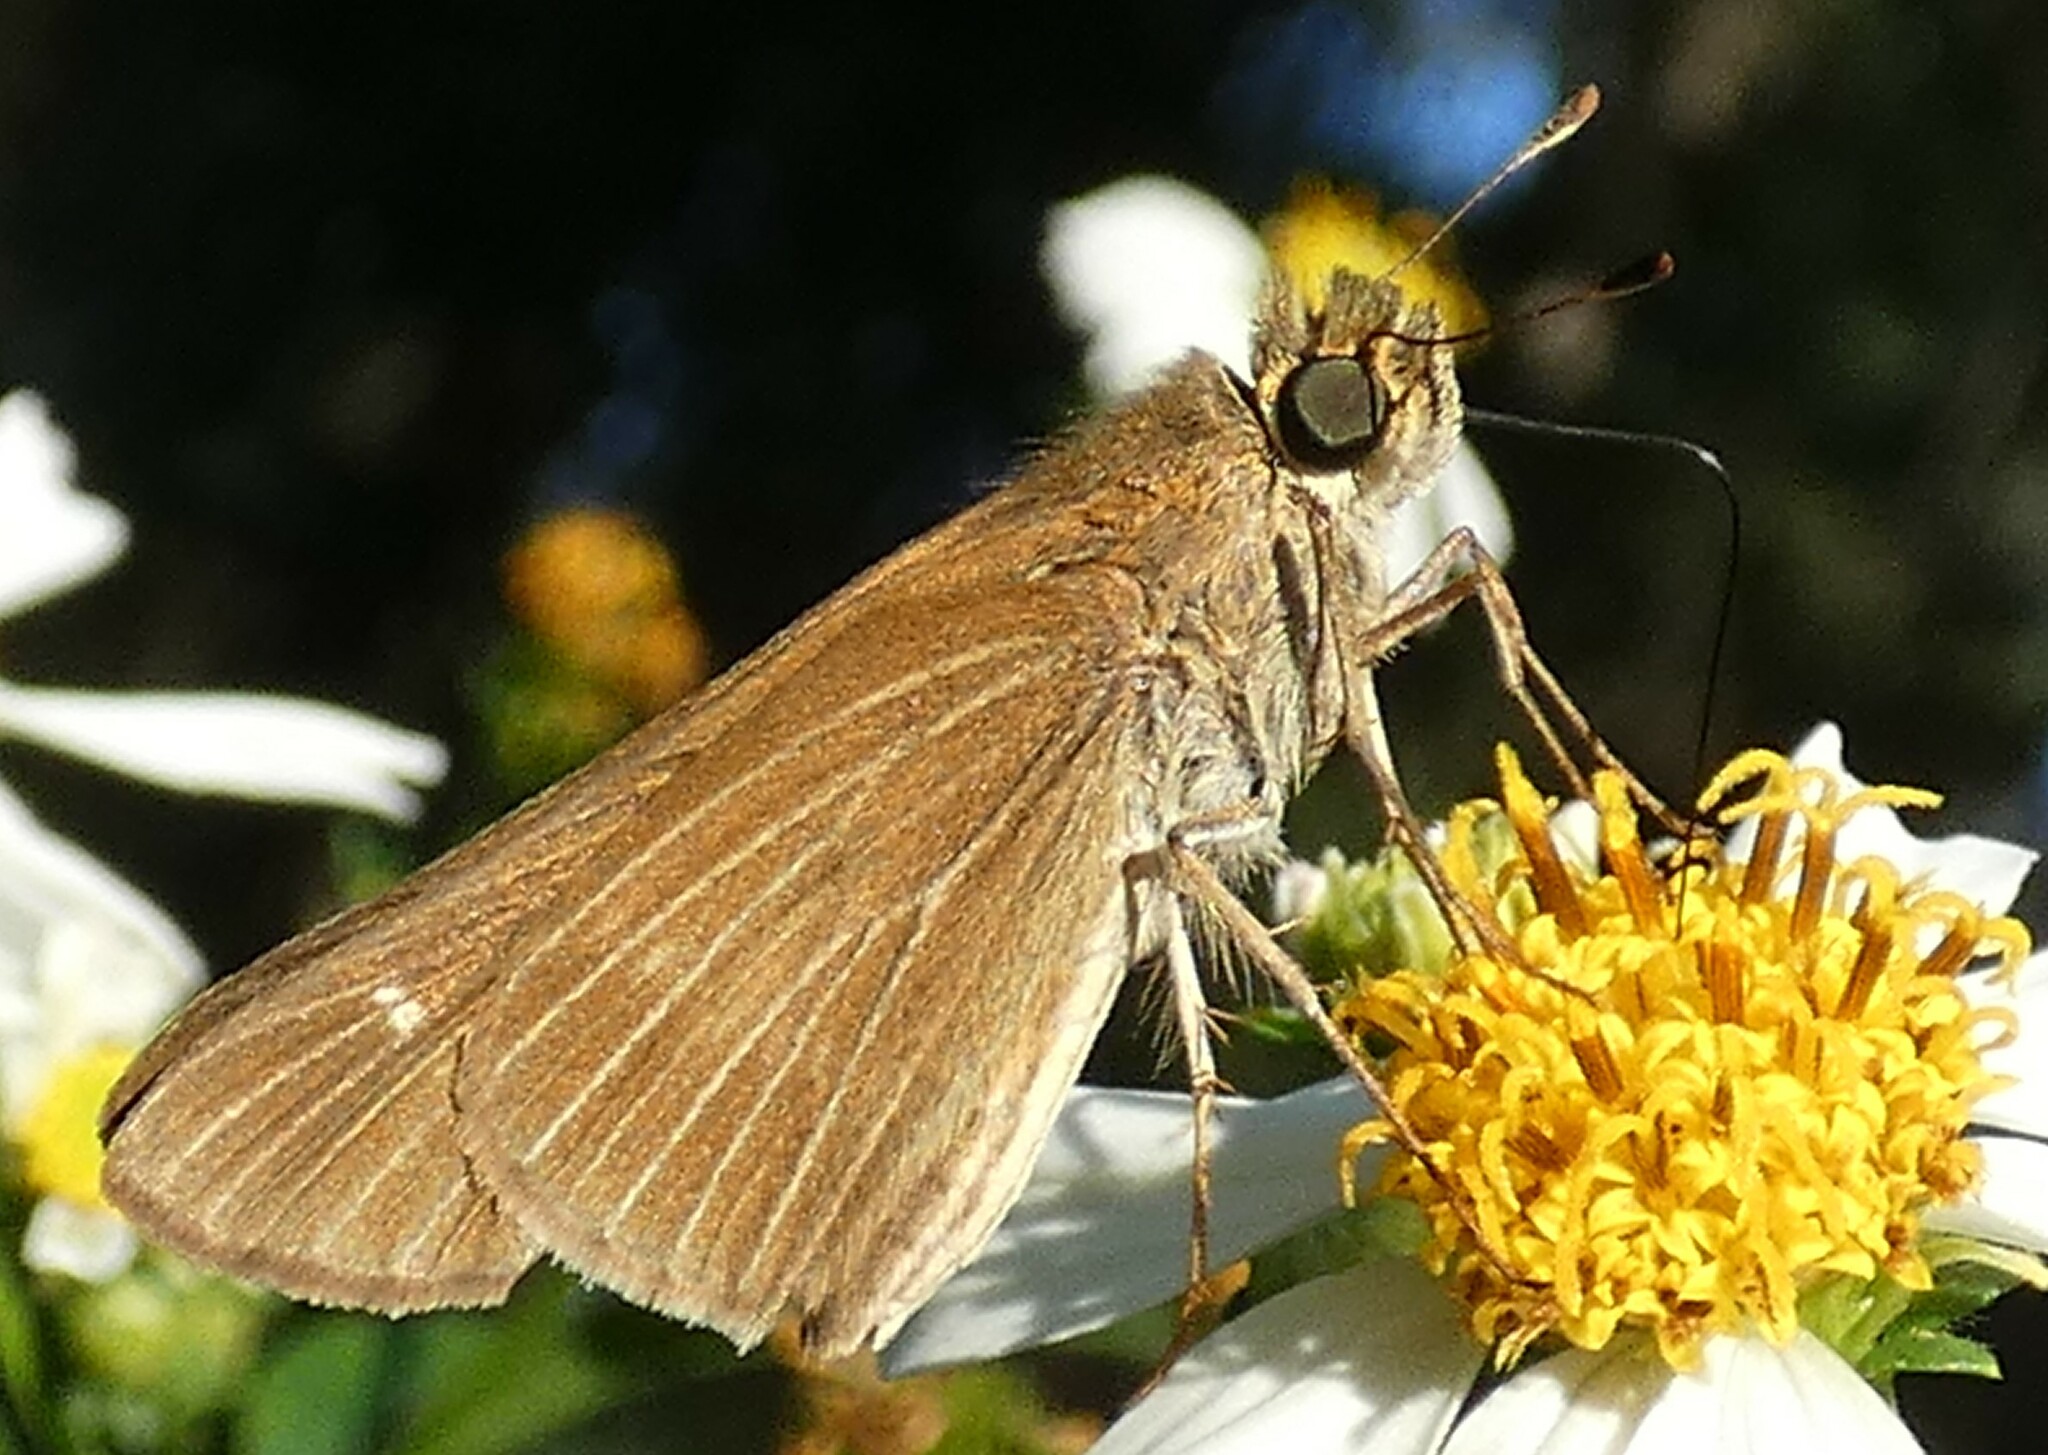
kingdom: Animalia
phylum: Arthropoda
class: Insecta
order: Lepidoptera
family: Hesperiidae
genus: Panoquina
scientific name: Panoquina ocola
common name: Ocola skipper
